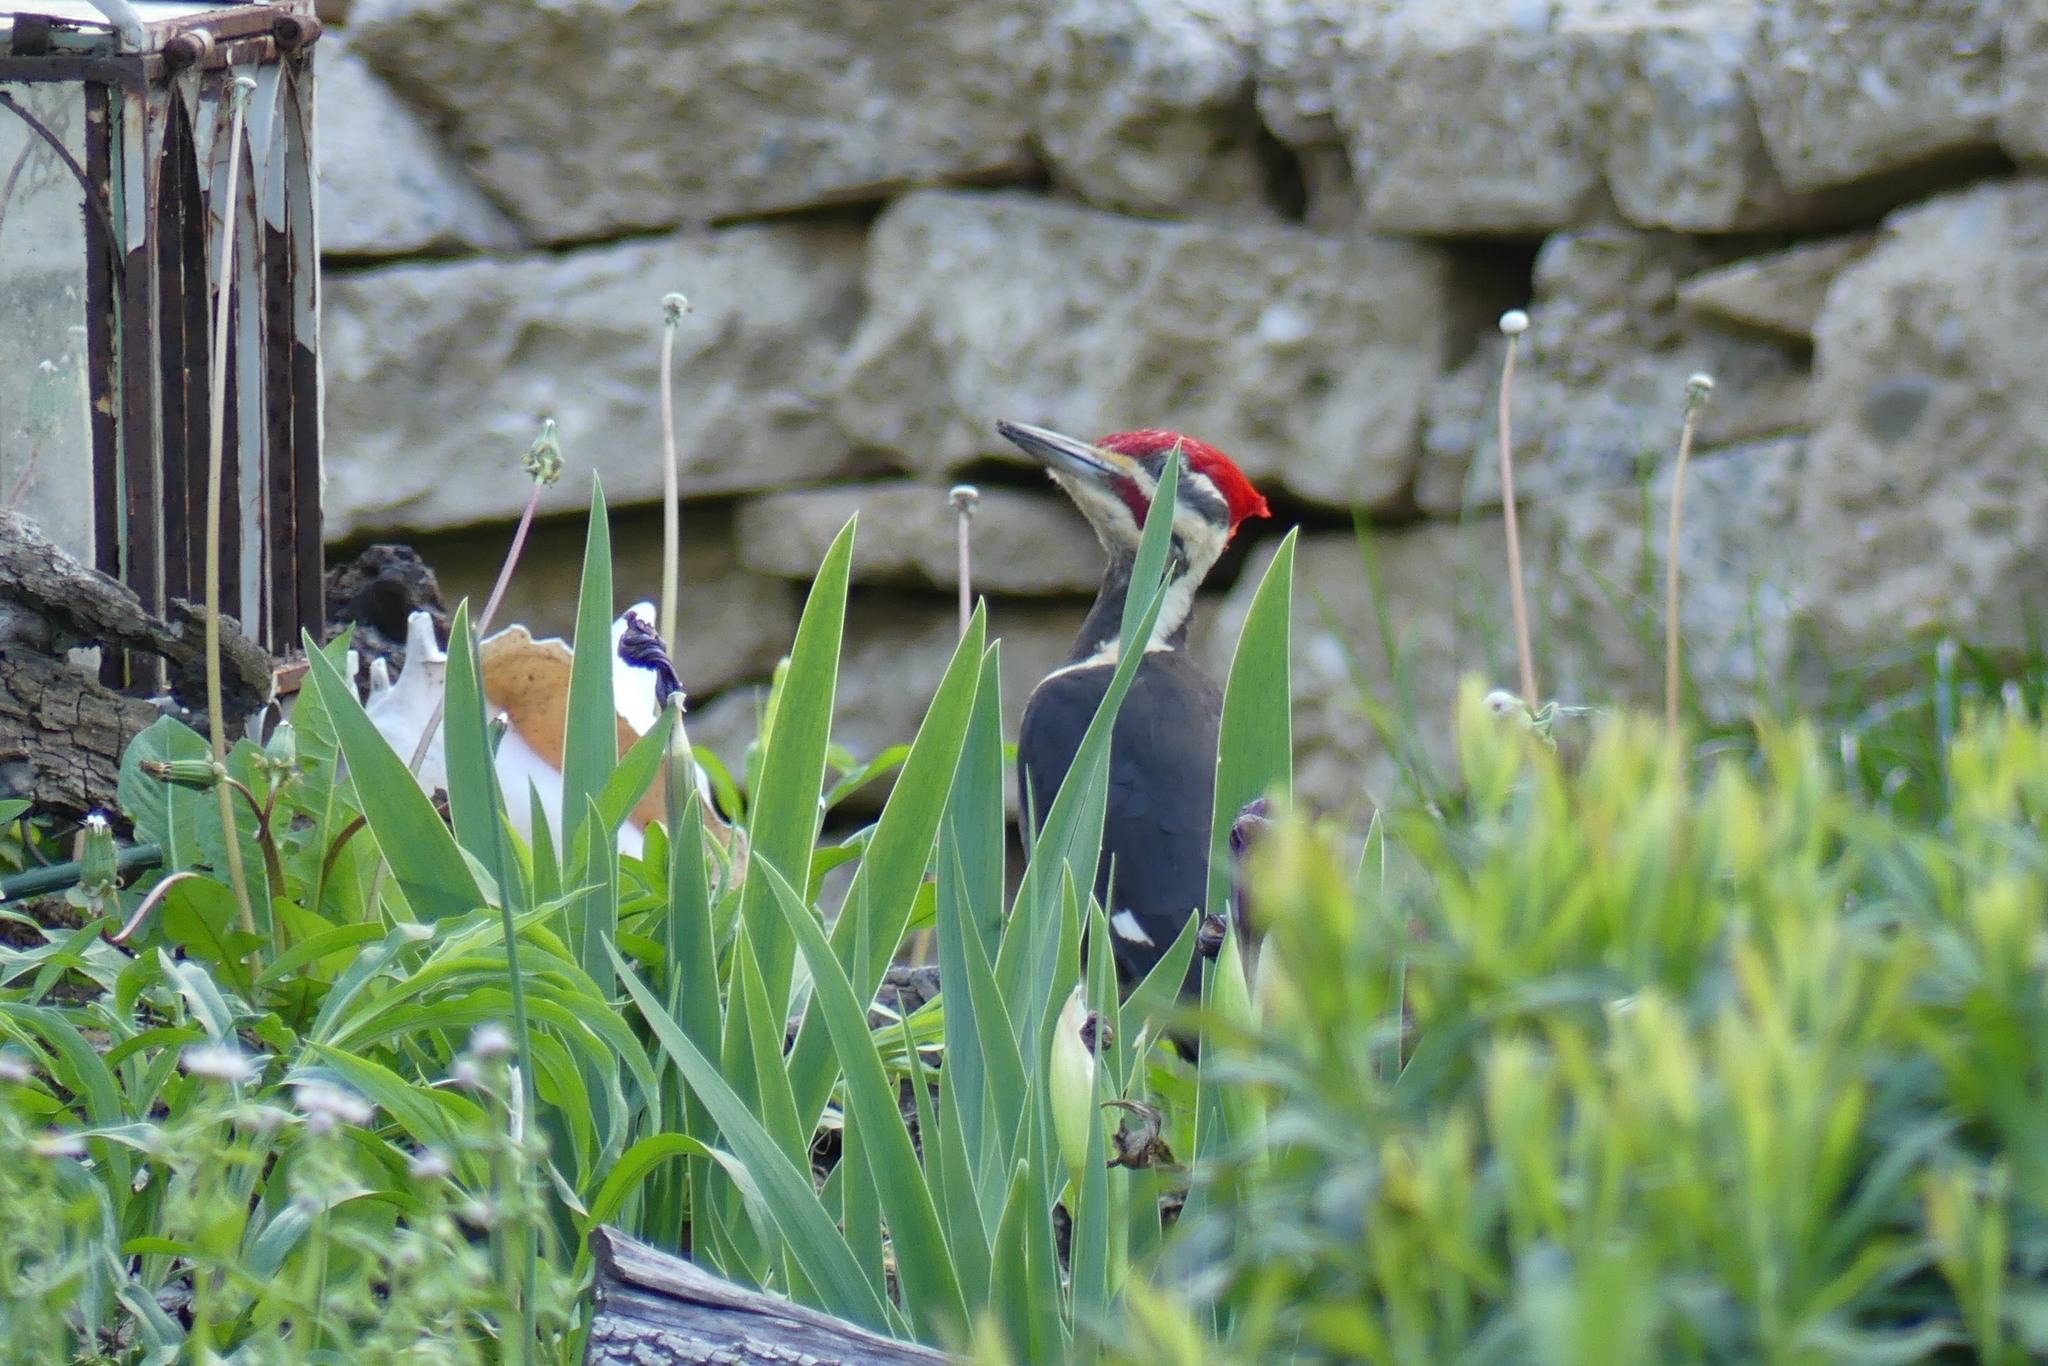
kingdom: Animalia
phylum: Chordata
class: Aves
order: Piciformes
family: Picidae
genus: Dryocopus
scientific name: Dryocopus pileatus
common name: Pileated woodpecker
